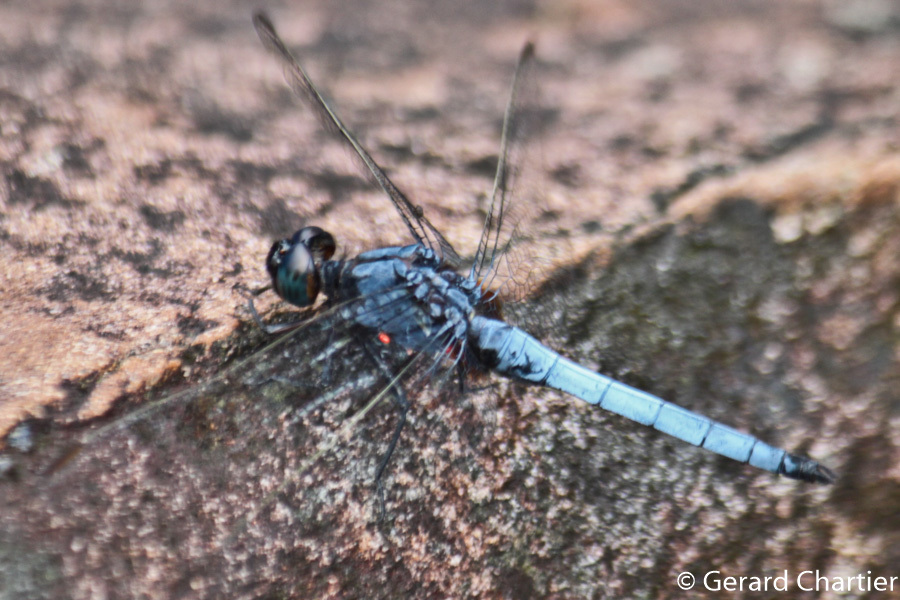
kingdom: Animalia
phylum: Arthropoda
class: Insecta
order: Odonata
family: Libellulidae
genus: Orthetrum
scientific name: Orthetrum glaucum
